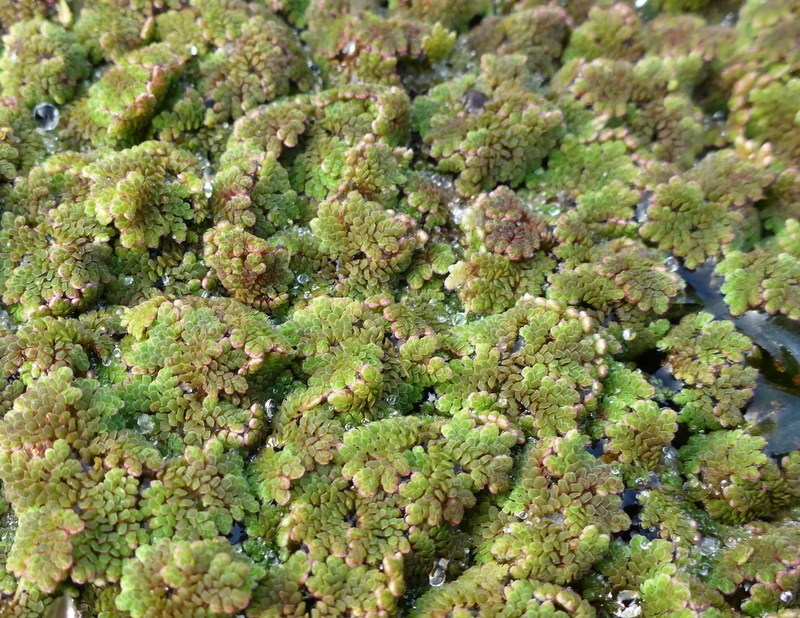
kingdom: Plantae
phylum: Tracheophyta
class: Polypodiopsida
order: Salviniales
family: Salviniaceae
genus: Azolla
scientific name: Azolla caroliniana
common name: Carolina mosquitofern
